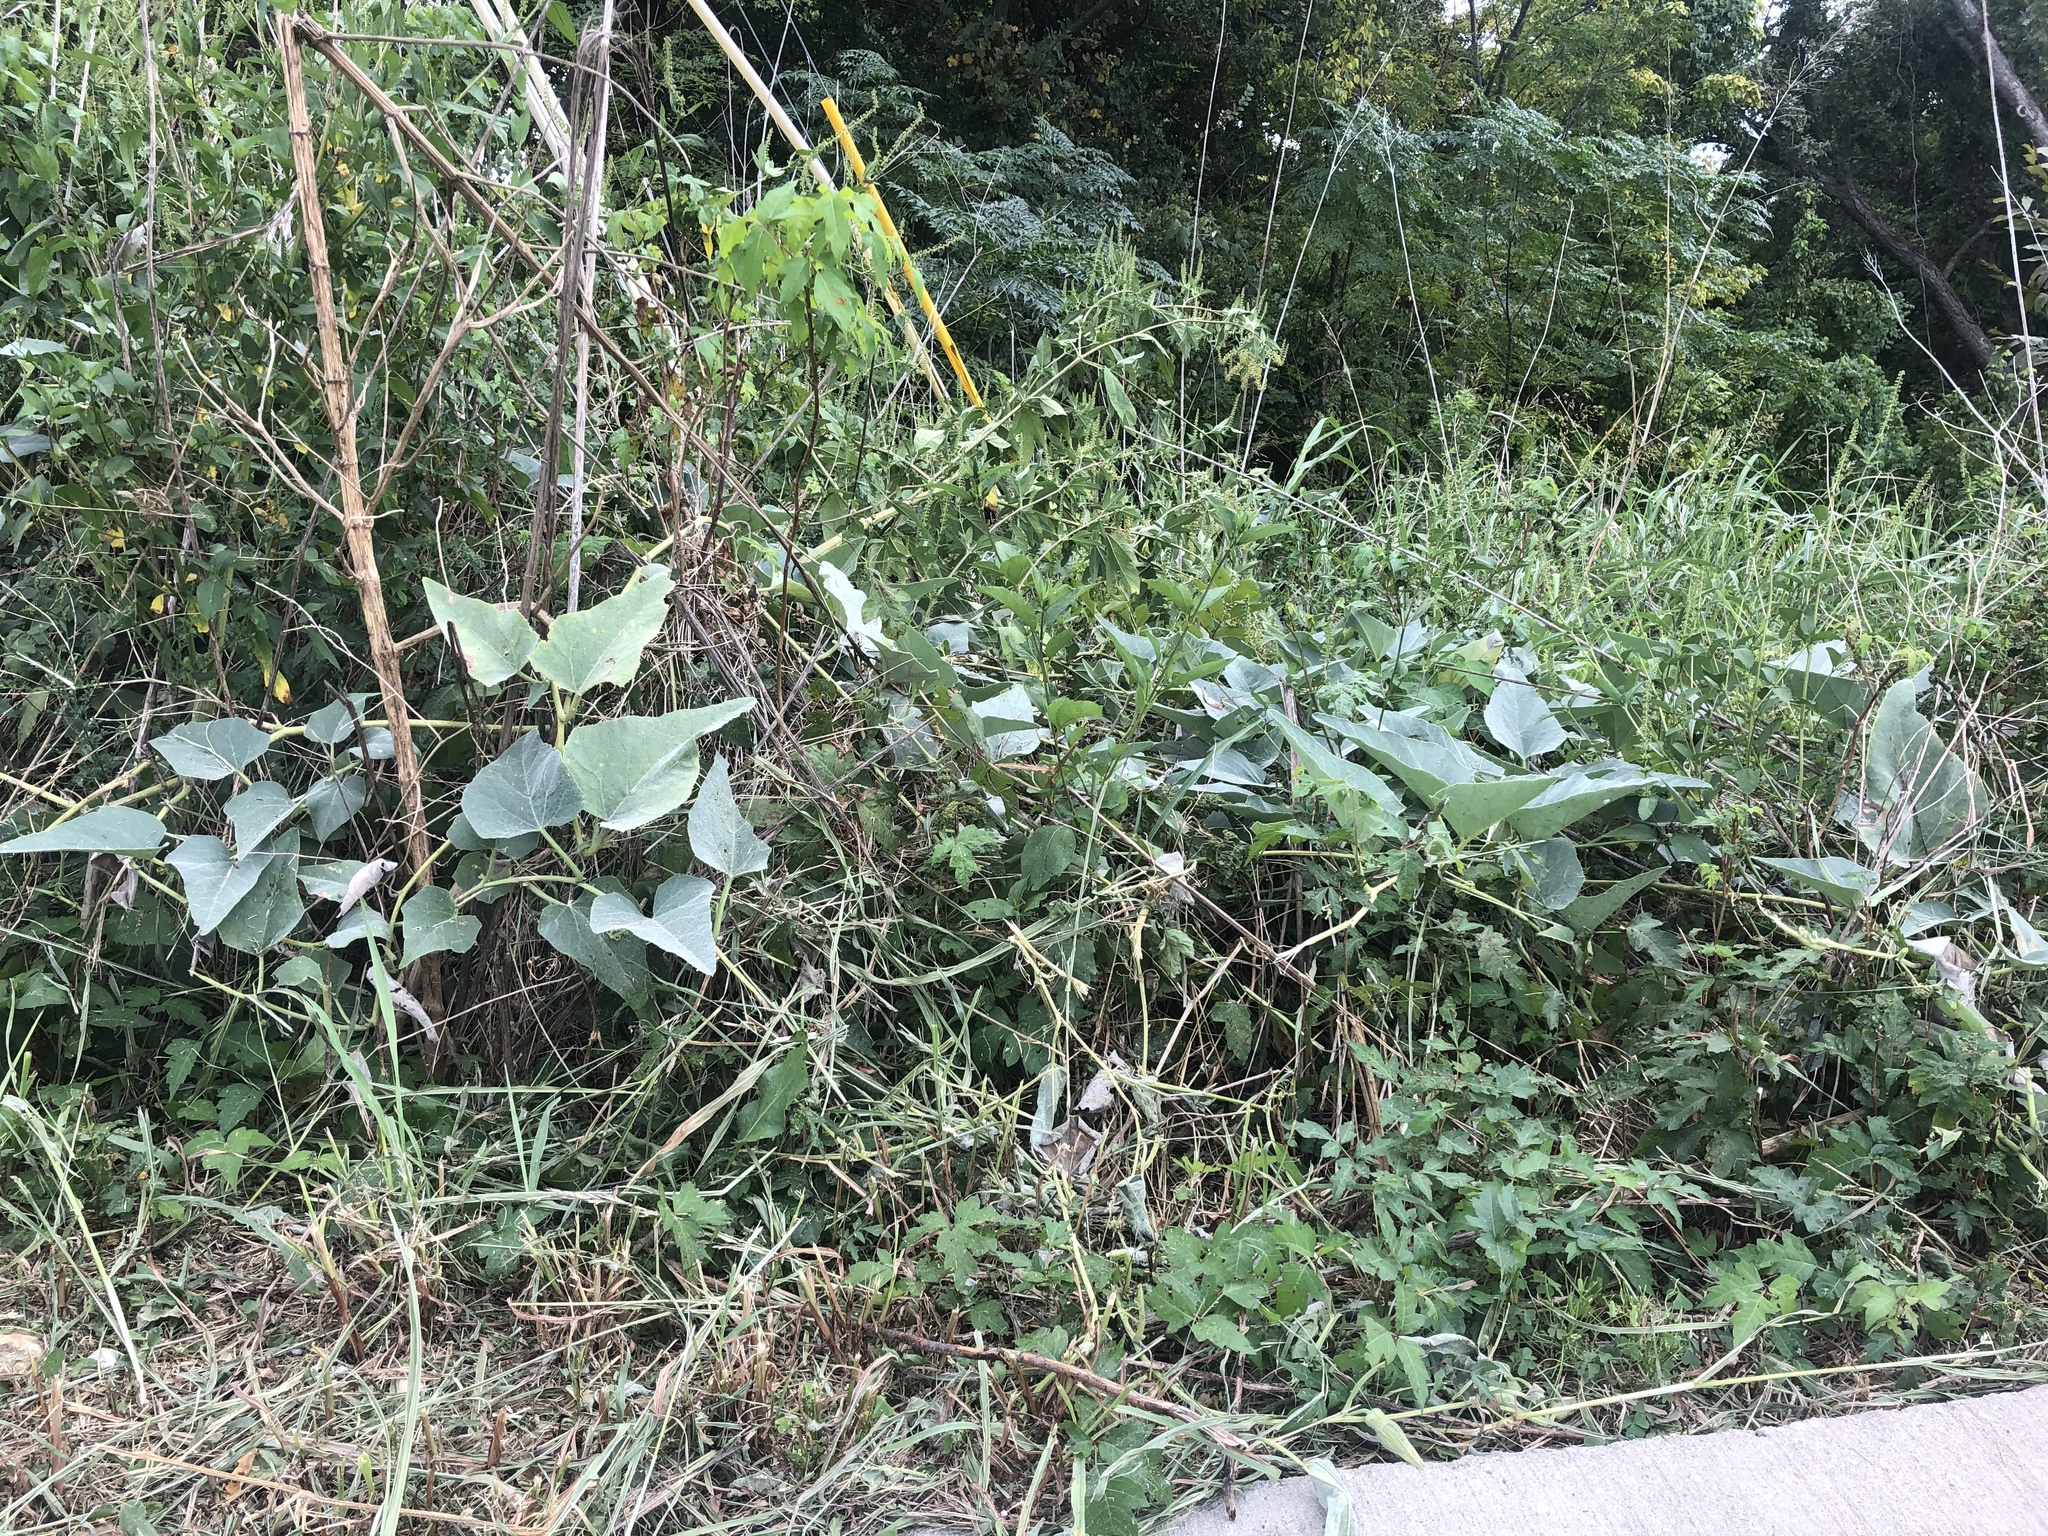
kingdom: Plantae
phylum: Tracheophyta
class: Magnoliopsida
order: Cucurbitales
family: Cucurbitaceae
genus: Cucurbita
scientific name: Cucurbita foetidissima
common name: Buffalo gourd
